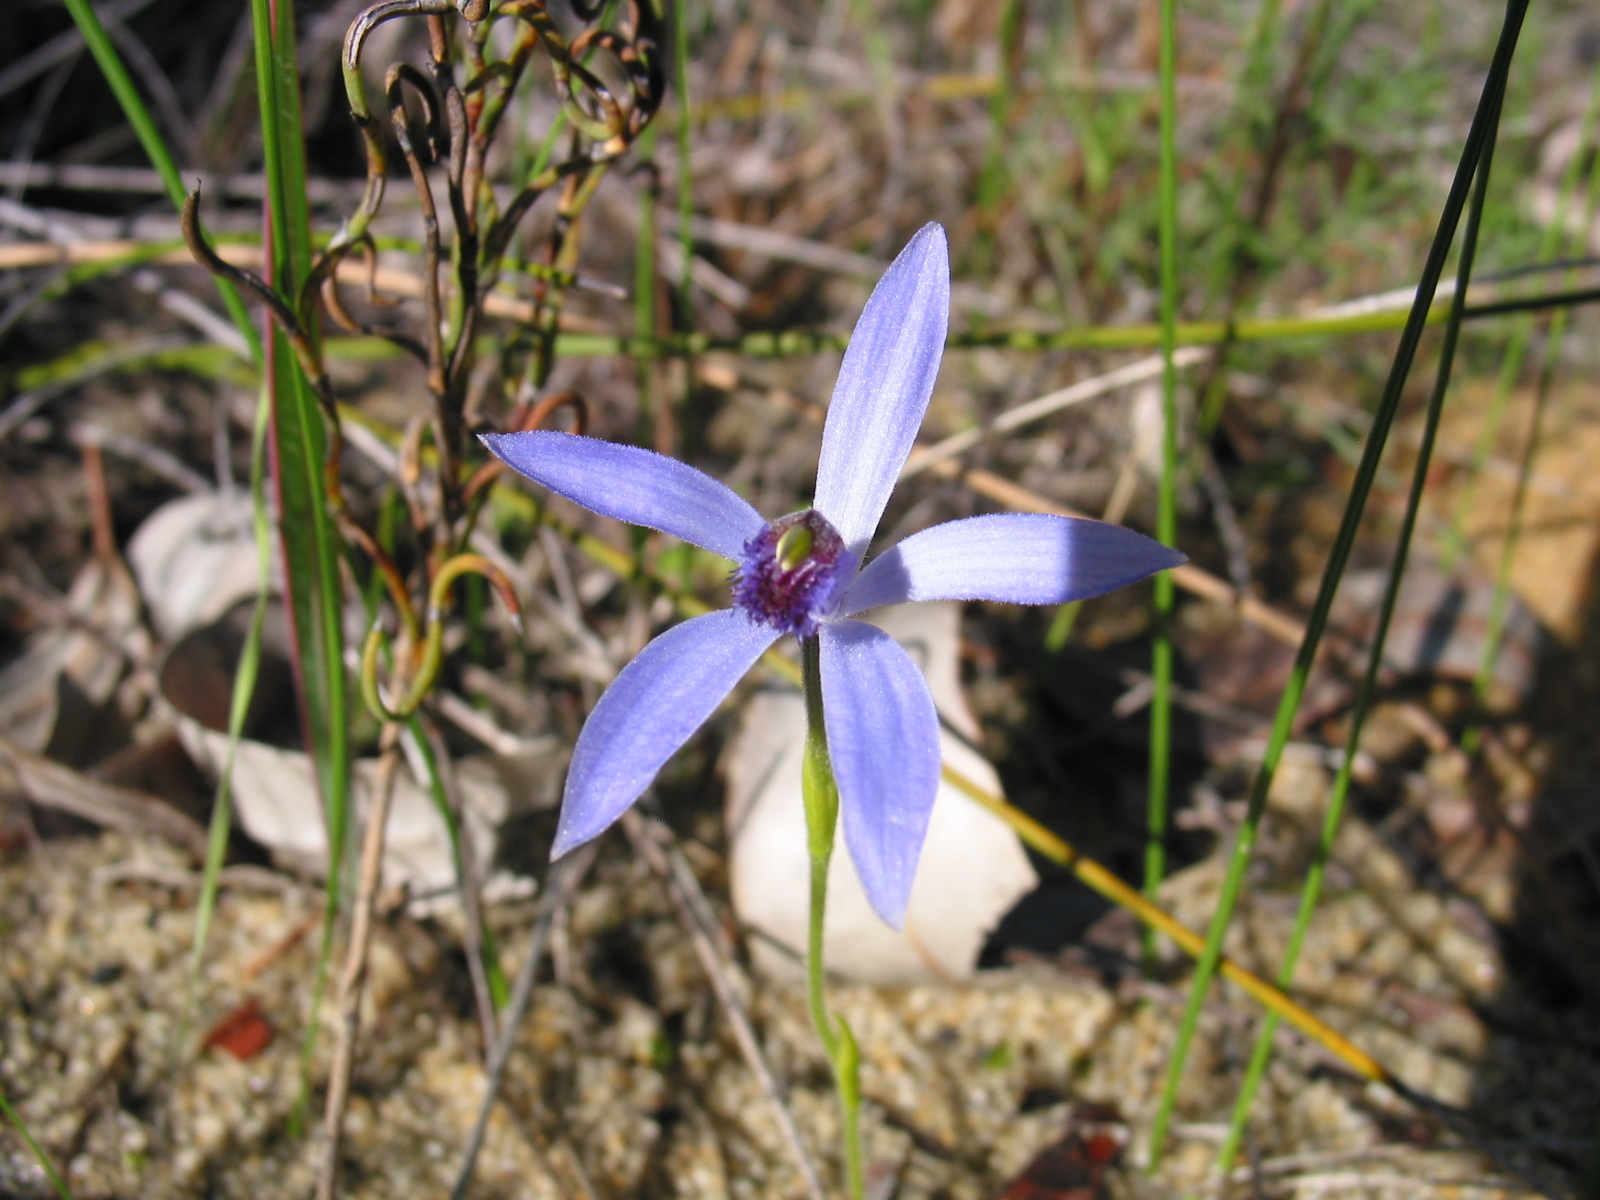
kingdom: Plantae
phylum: Tracheophyta
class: Liliopsida
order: Asparagales
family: Orchidaceae
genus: Pheladenia
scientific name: Pheladenia deformis
